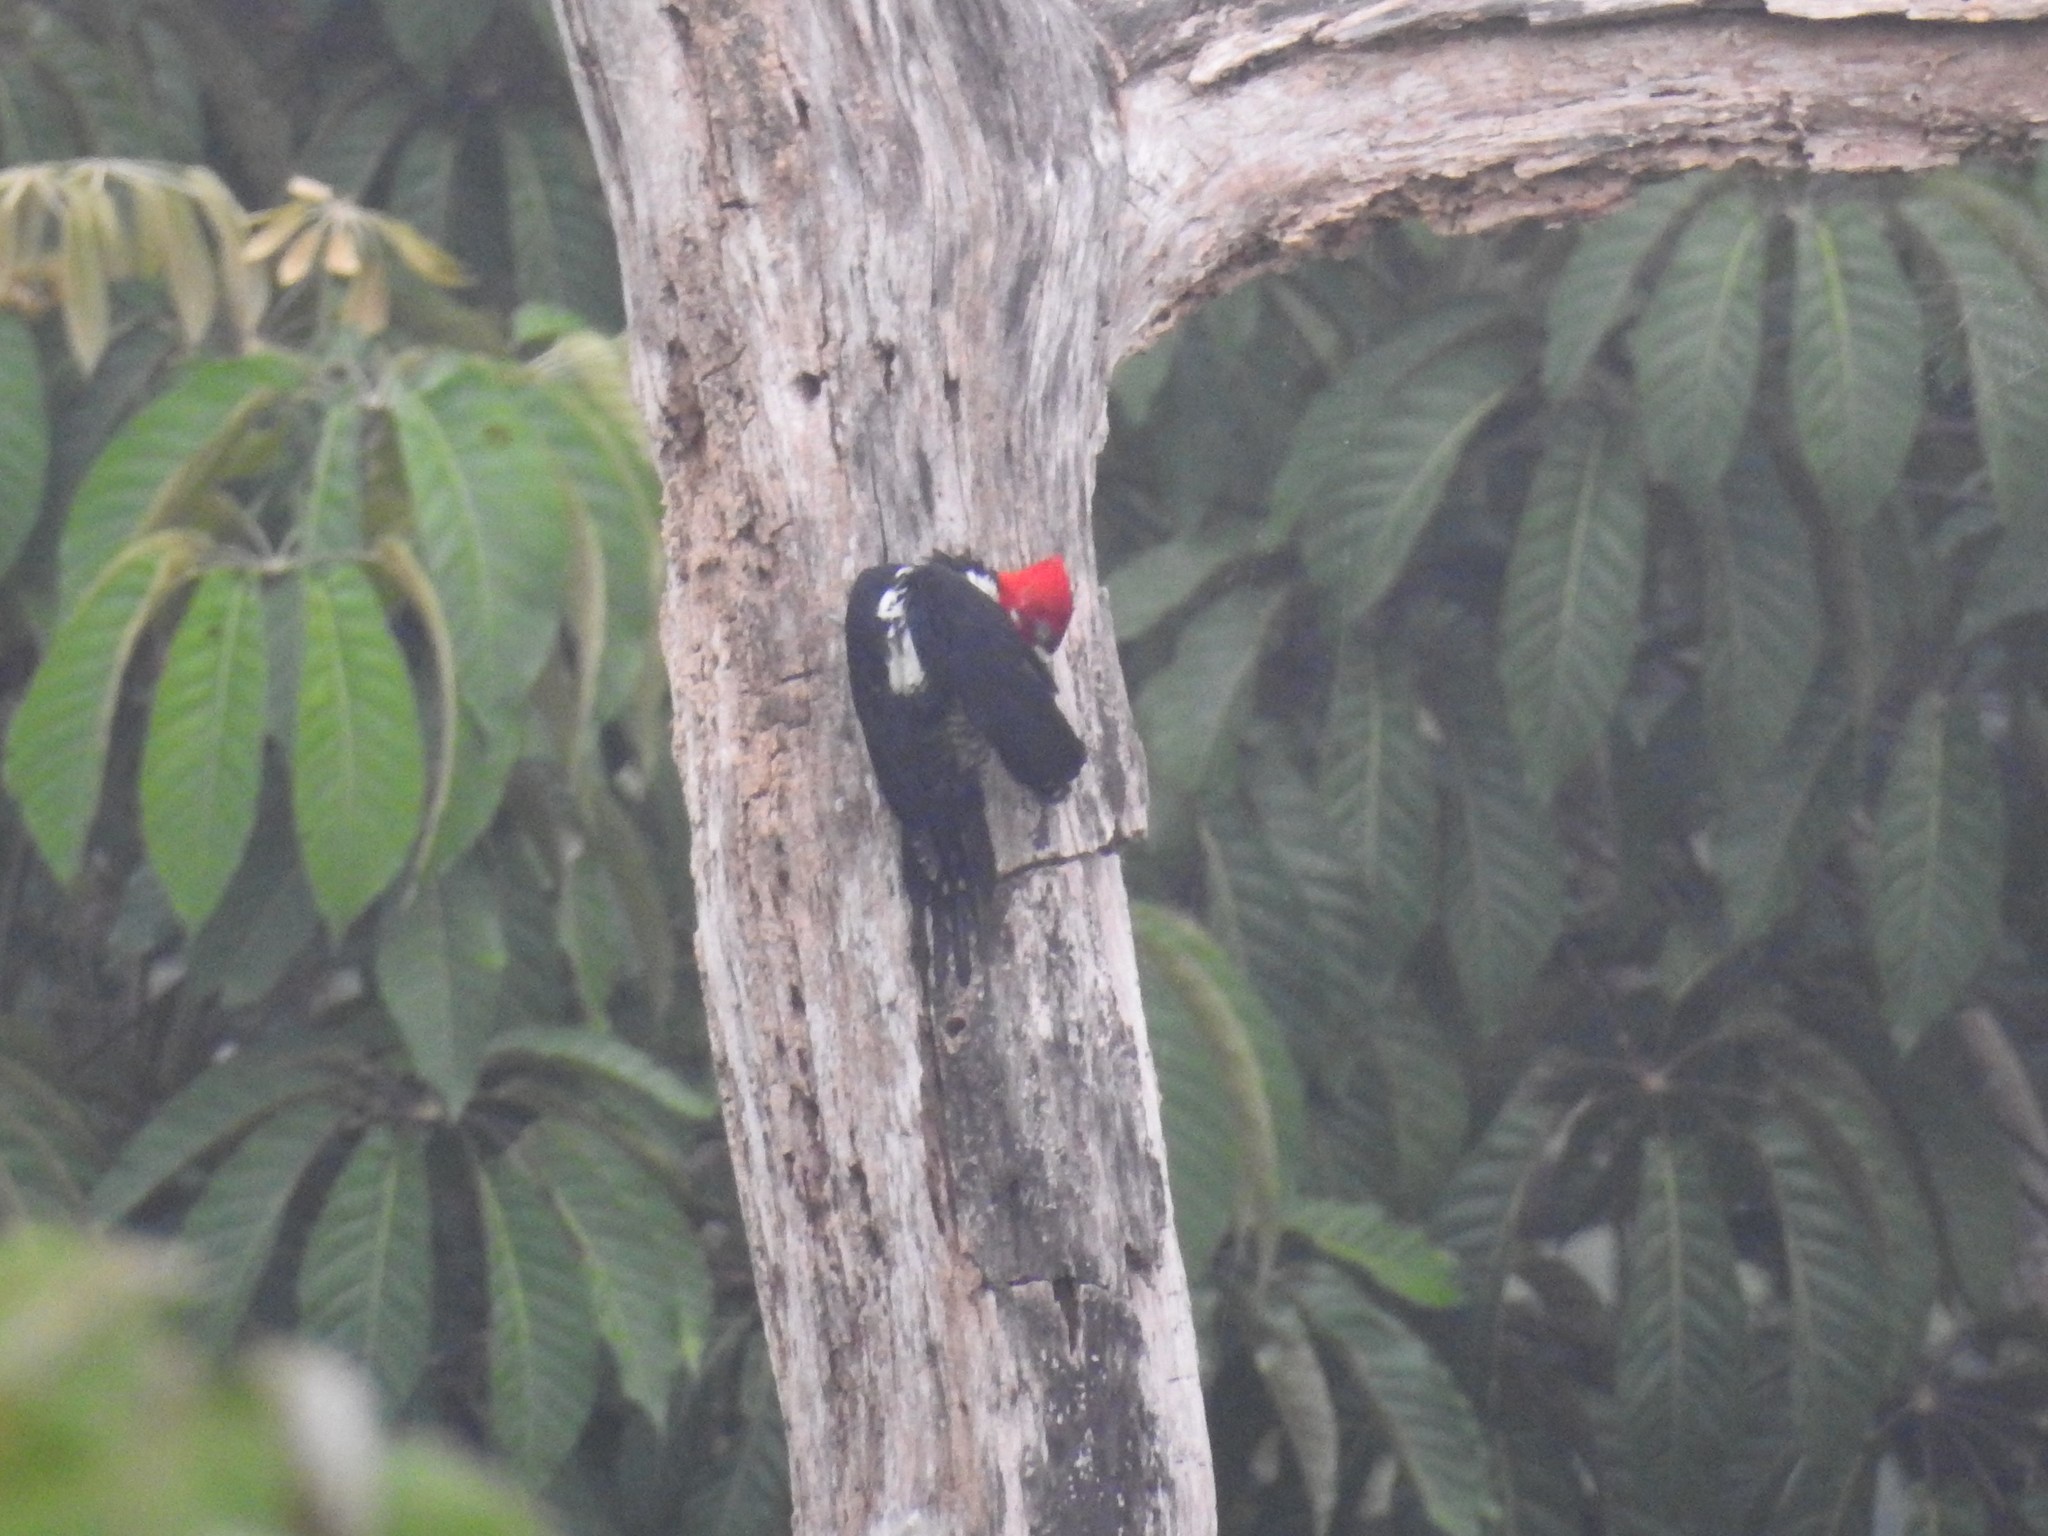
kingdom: Animalia
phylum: Chordata
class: Aves
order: Piciformes
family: Picidae
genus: Campephilus
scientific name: Campephilus melanoleucos
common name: Crimson-crested woodpecker
